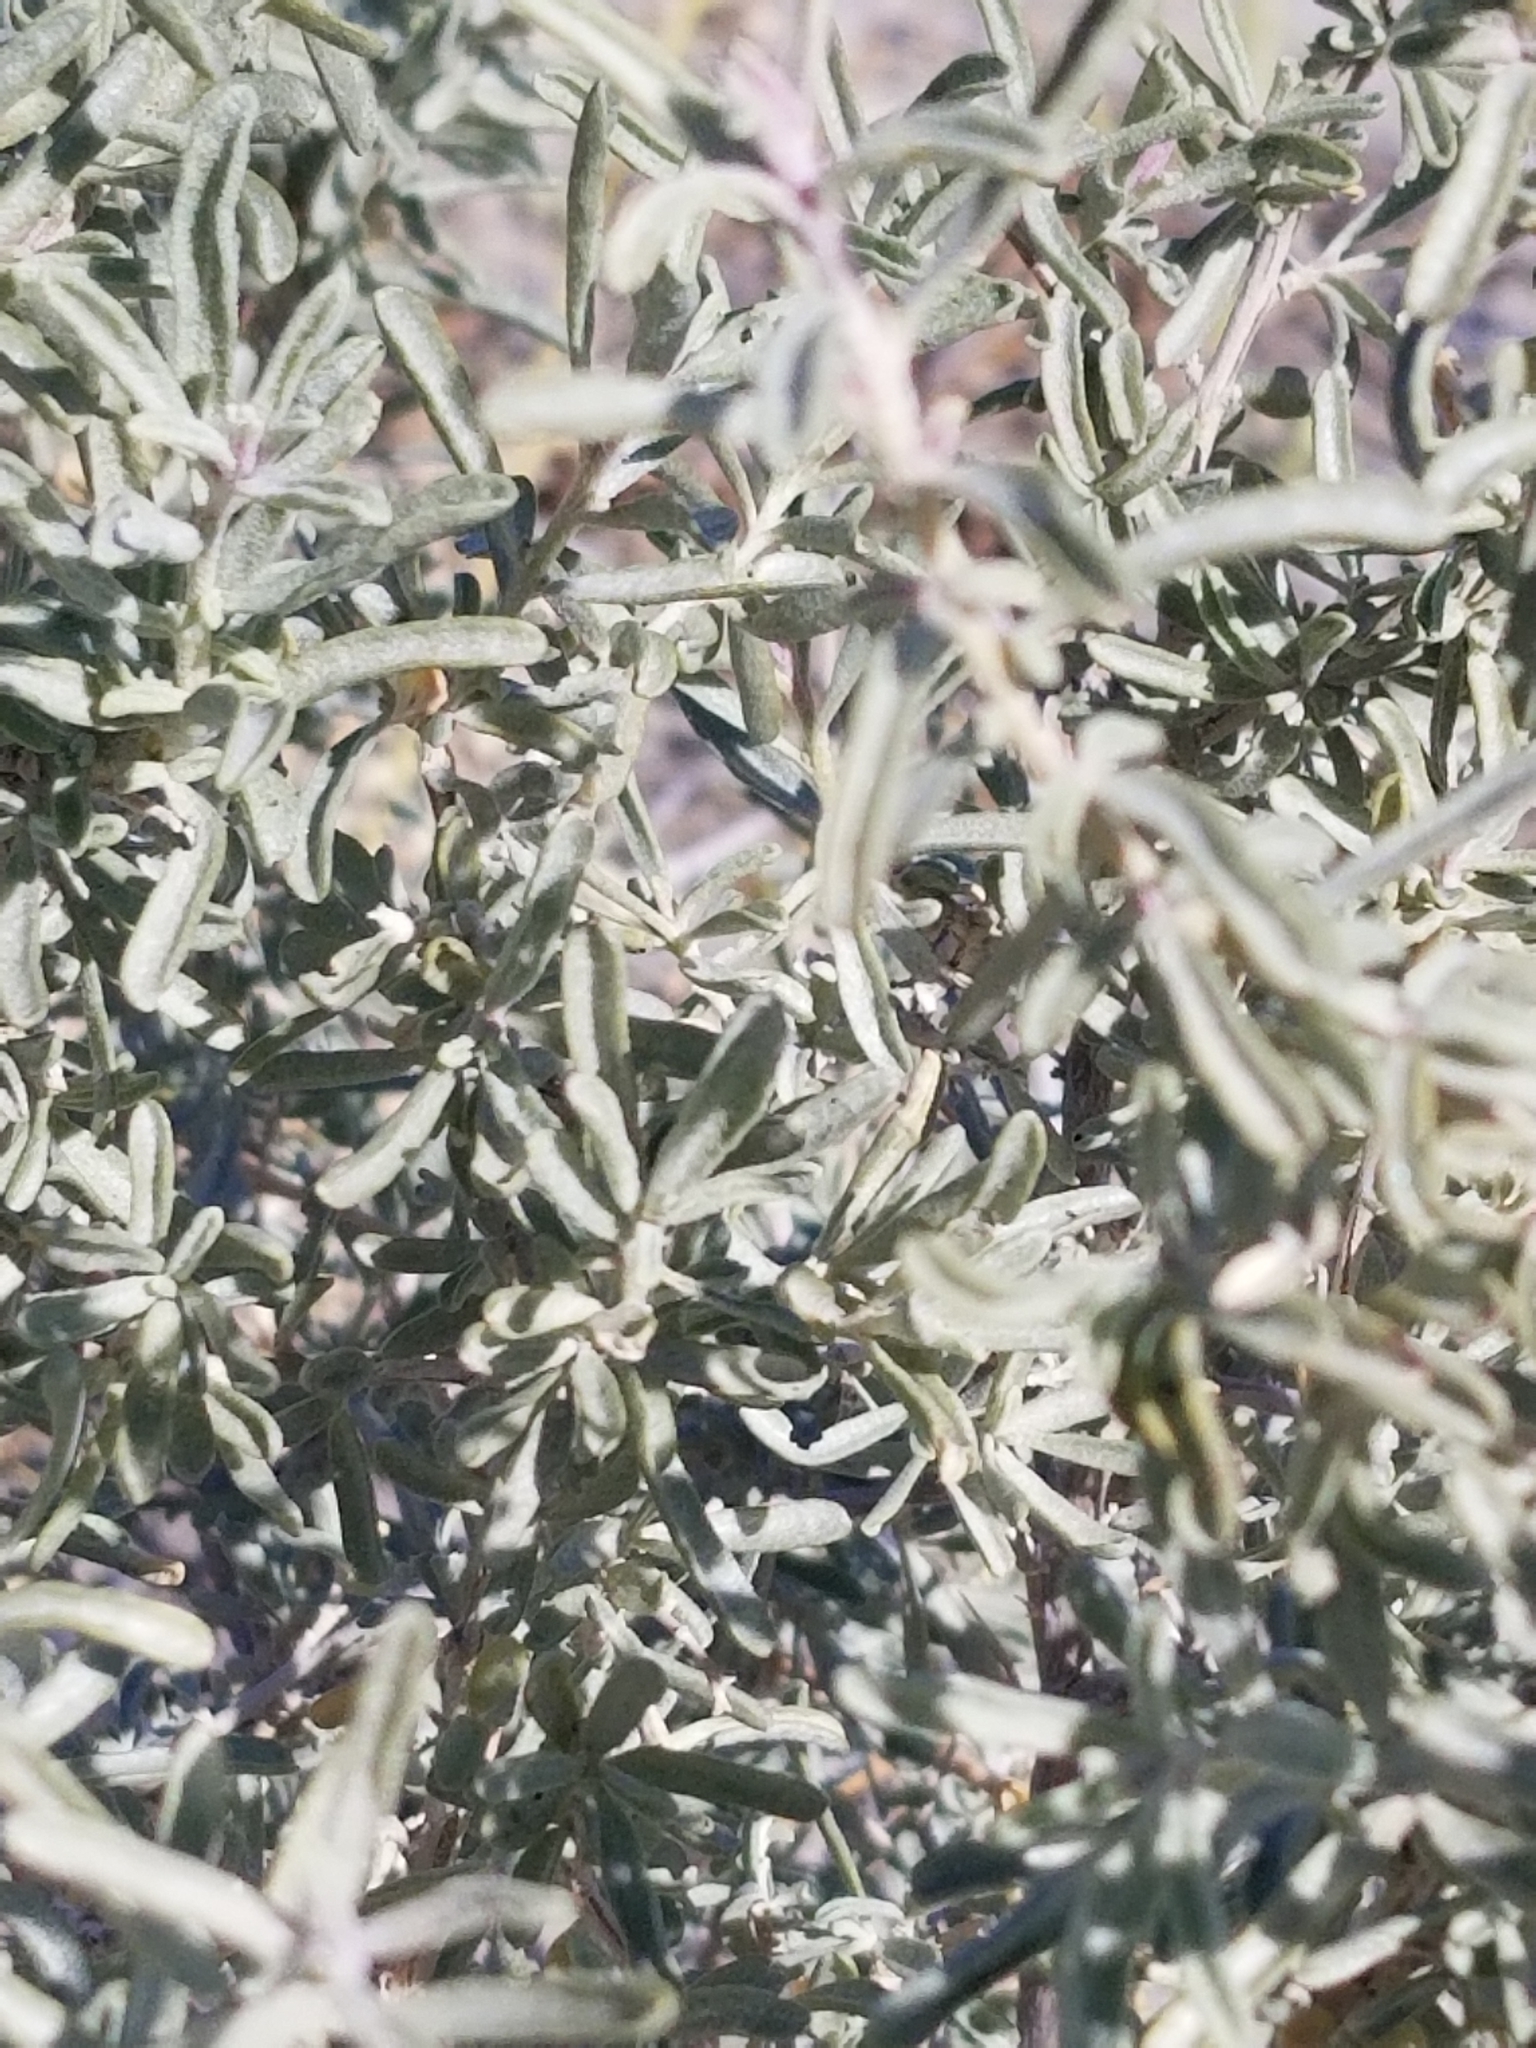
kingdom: Plantae
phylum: Tracheophyta
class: Magnoliopsida
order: Caryophyllales
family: Amaranthaceae
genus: Atriplex
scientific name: Atriplex canescens
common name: Four-wing saltbush
